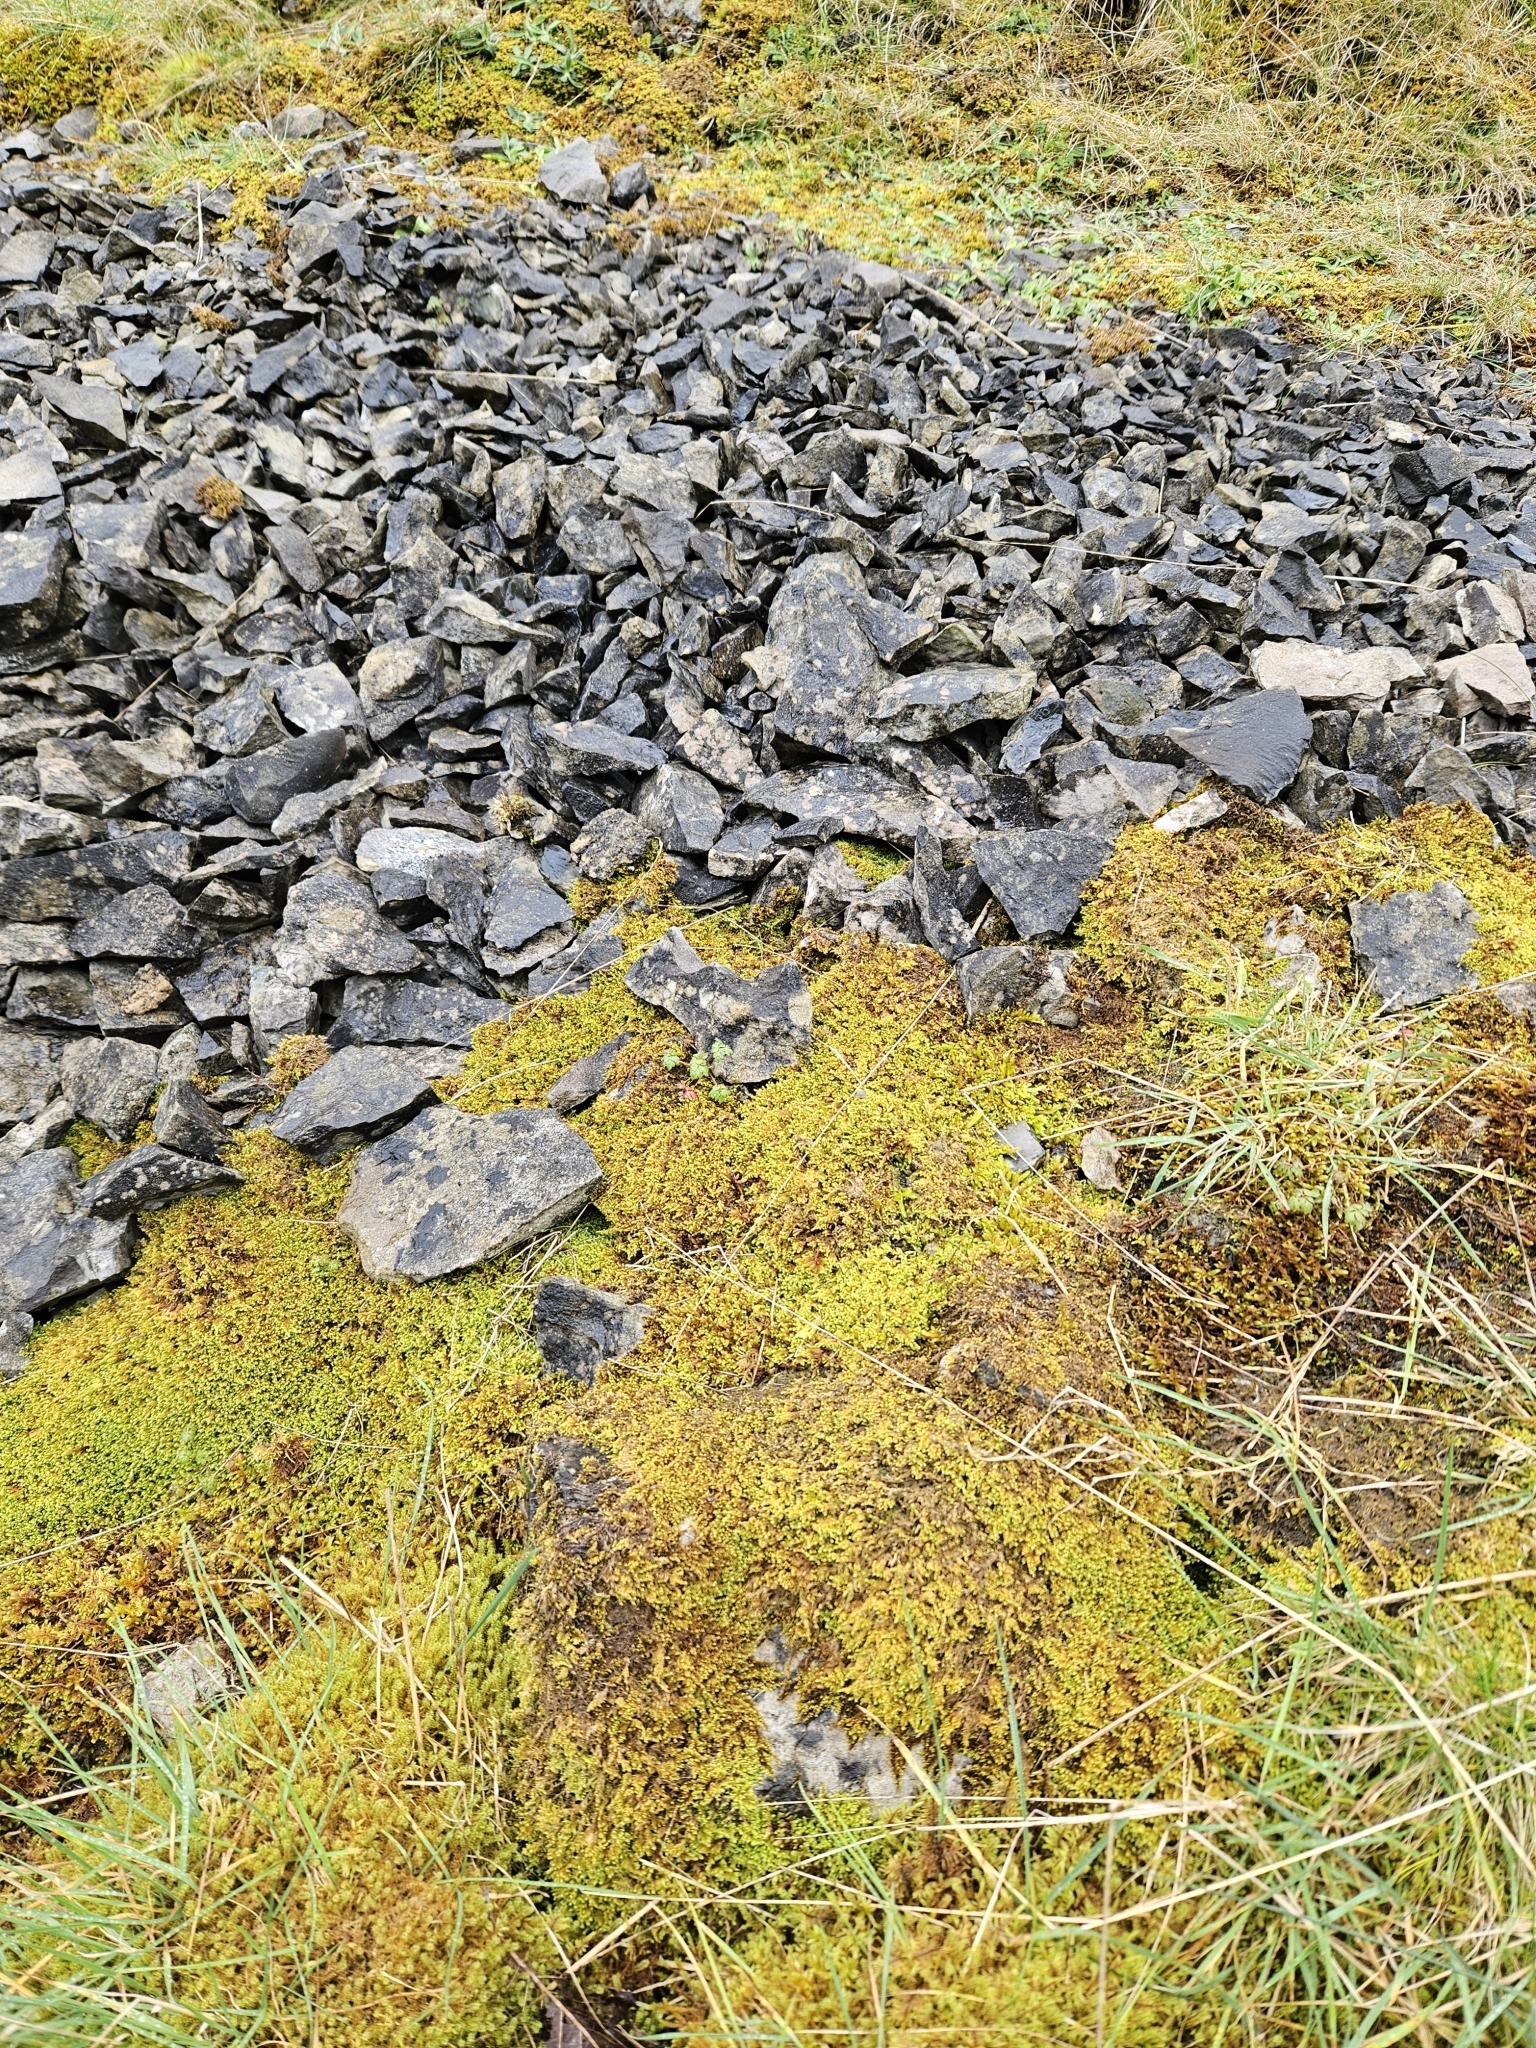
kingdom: Plantae
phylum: Bryophyta
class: Bryopsida
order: Hypnales
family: Myuriaceae
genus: Ctenidium
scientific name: Ctenidium molluscum
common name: Chalk comb-moss
